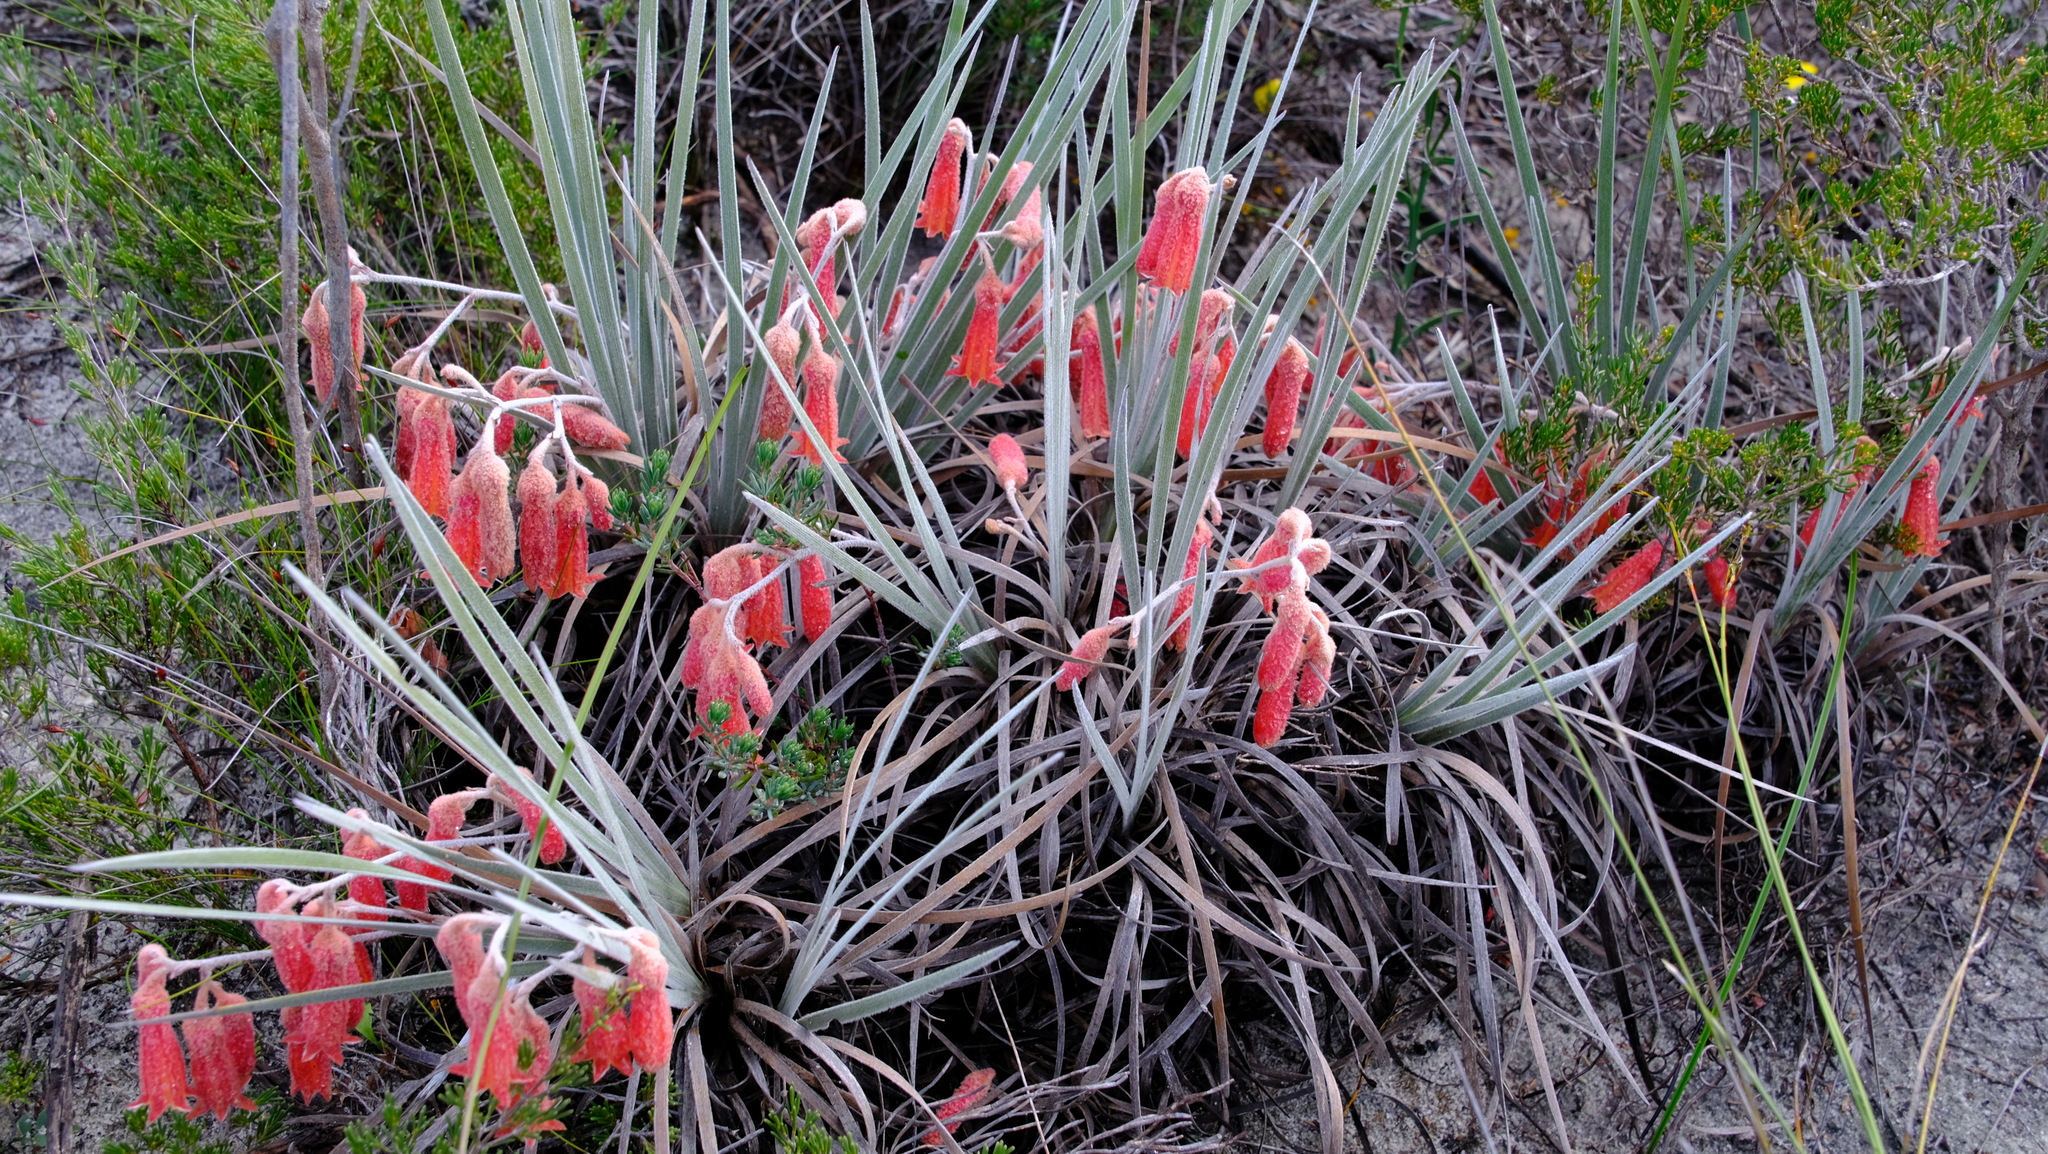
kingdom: Plantae
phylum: Tracheophyta
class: Liliopsida
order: Commelinales
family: Haemodoraceae
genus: Blancoa
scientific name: Blancoa canescens
